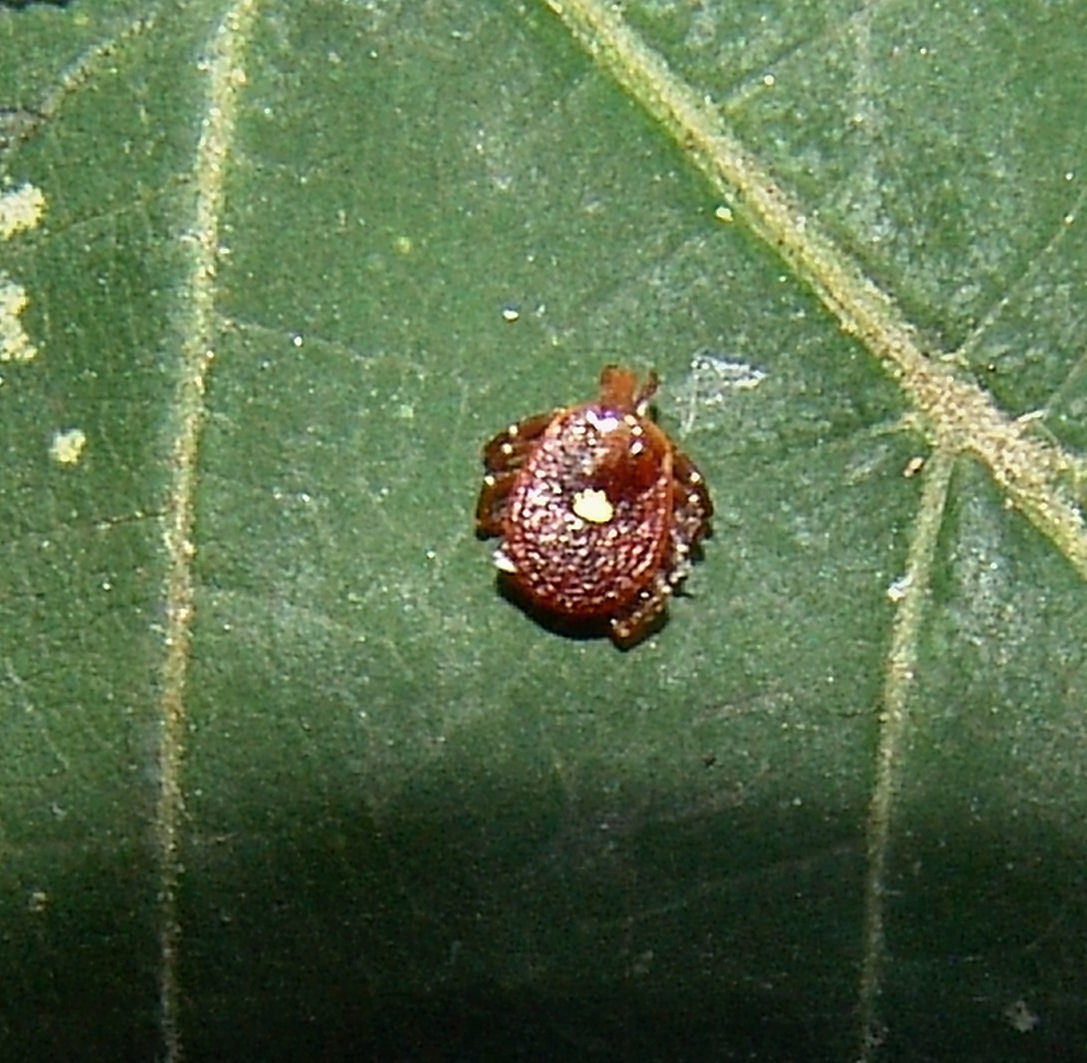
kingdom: Animalia
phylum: Arthropoda
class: Arachnida
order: Ixodida
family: Ixodidae
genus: Amblyomma
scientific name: Amblyomma americanum
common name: Lone star tick
